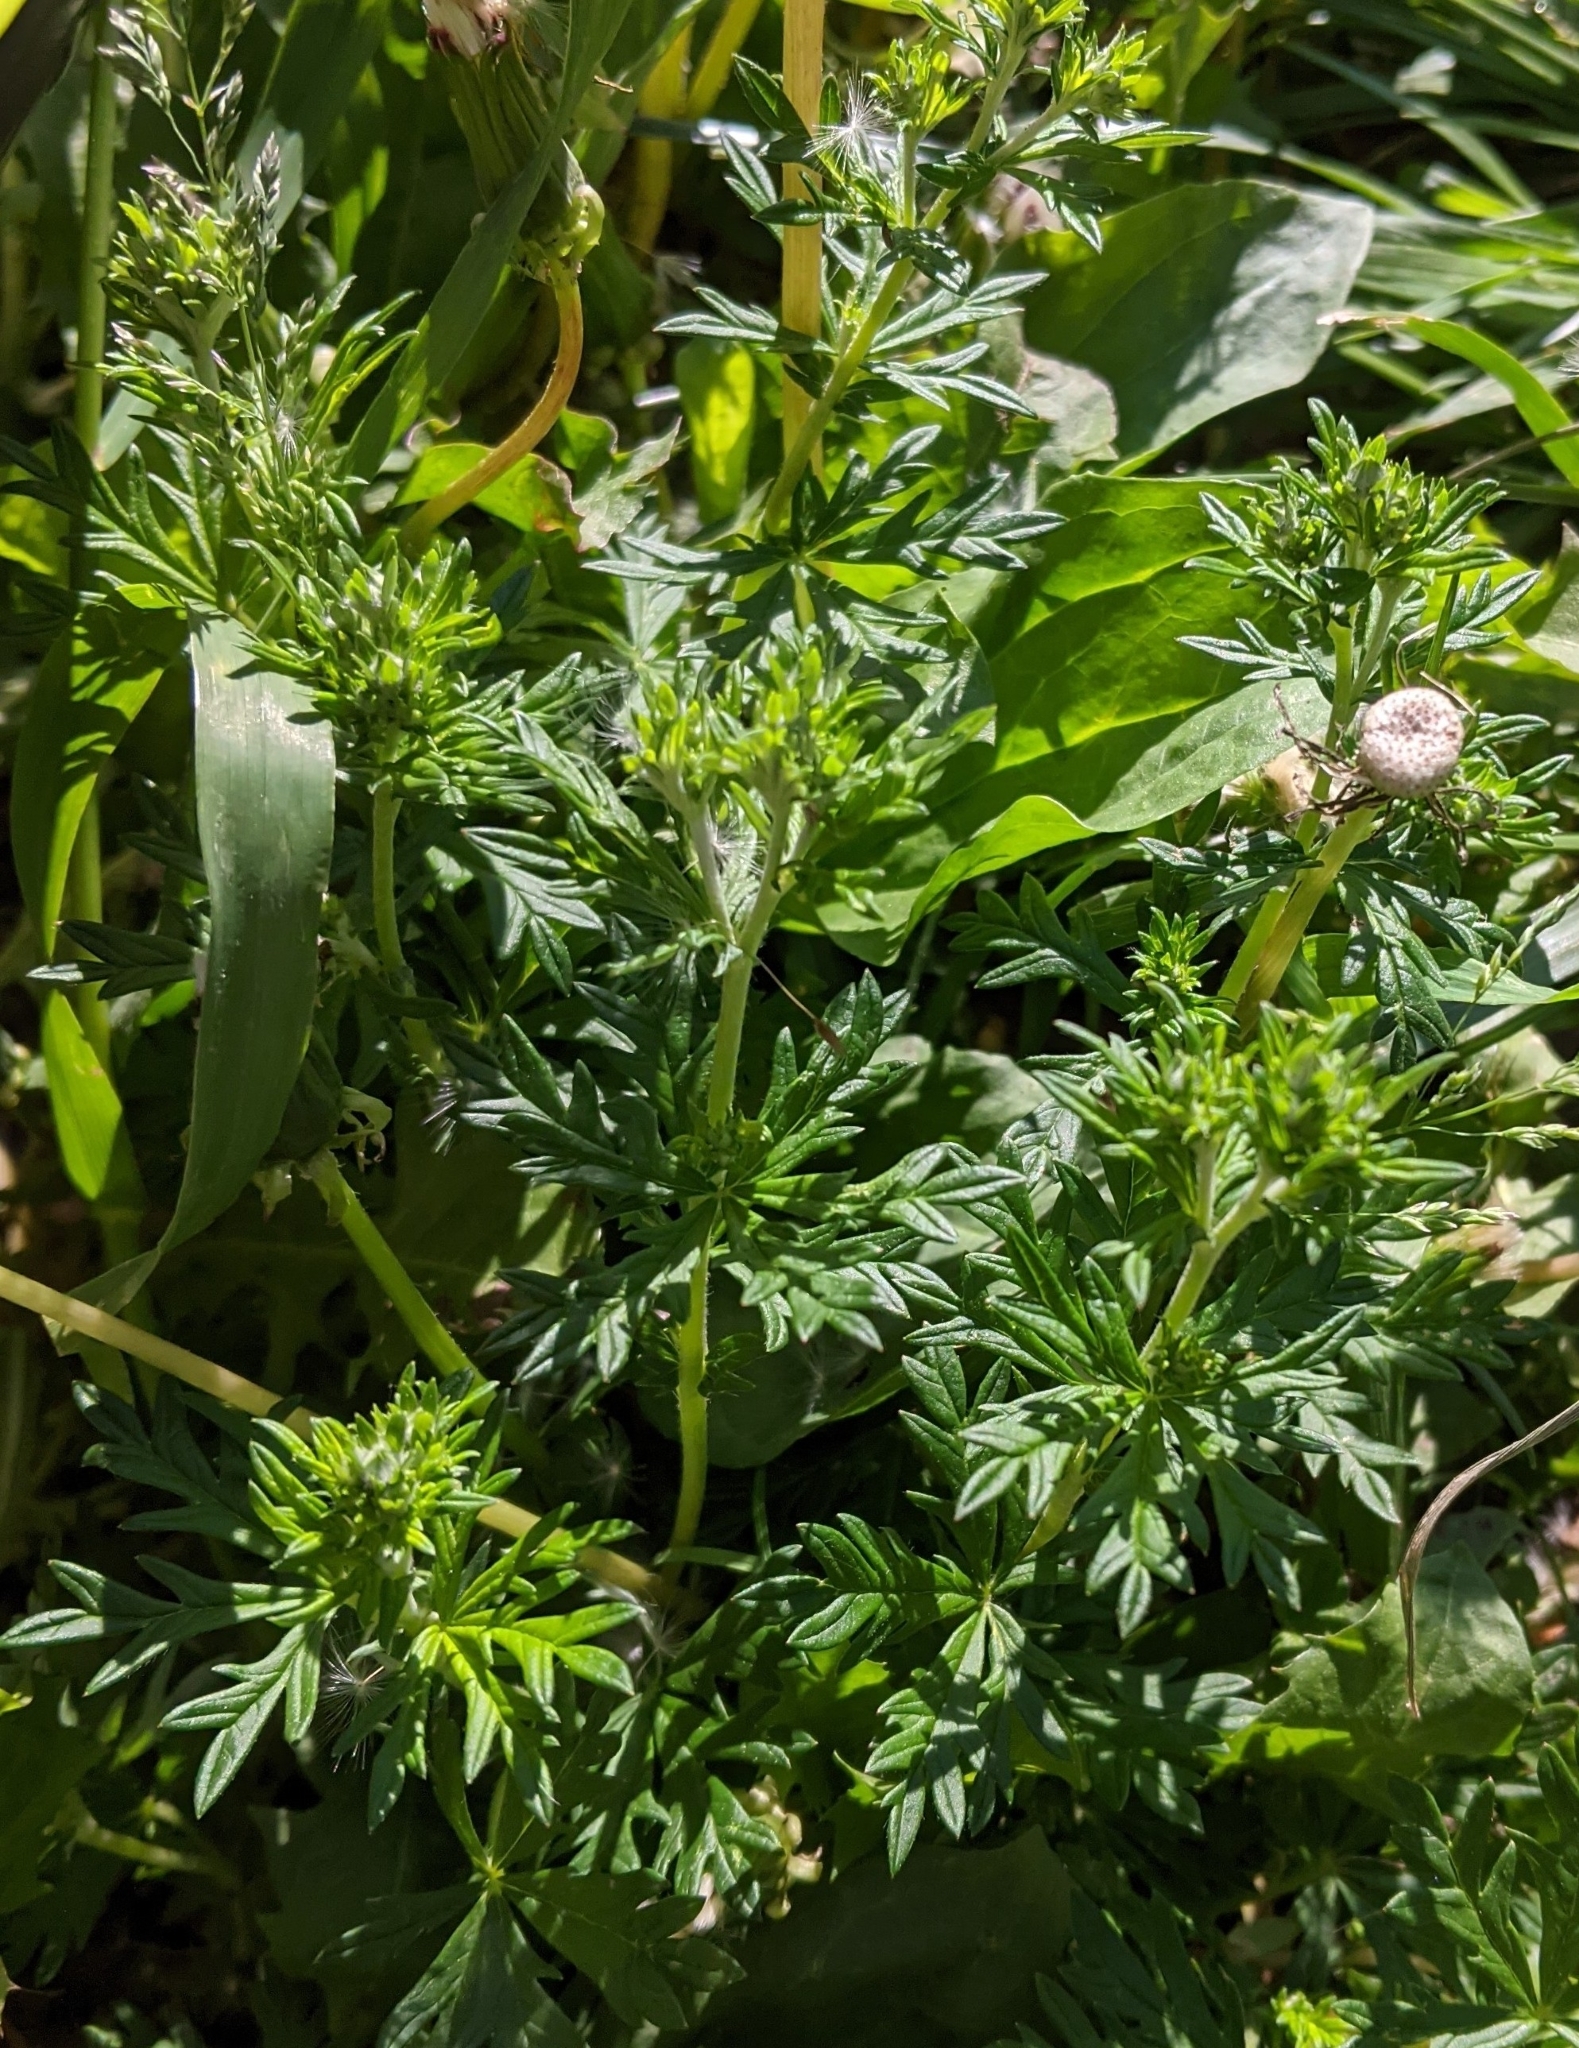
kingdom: Plantae
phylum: Tracheophyta
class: Magnoliopsida
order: Rosales
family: Rosaceae
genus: Potentilla
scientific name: Potentilla argentea
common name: Hoary cinquefoil
